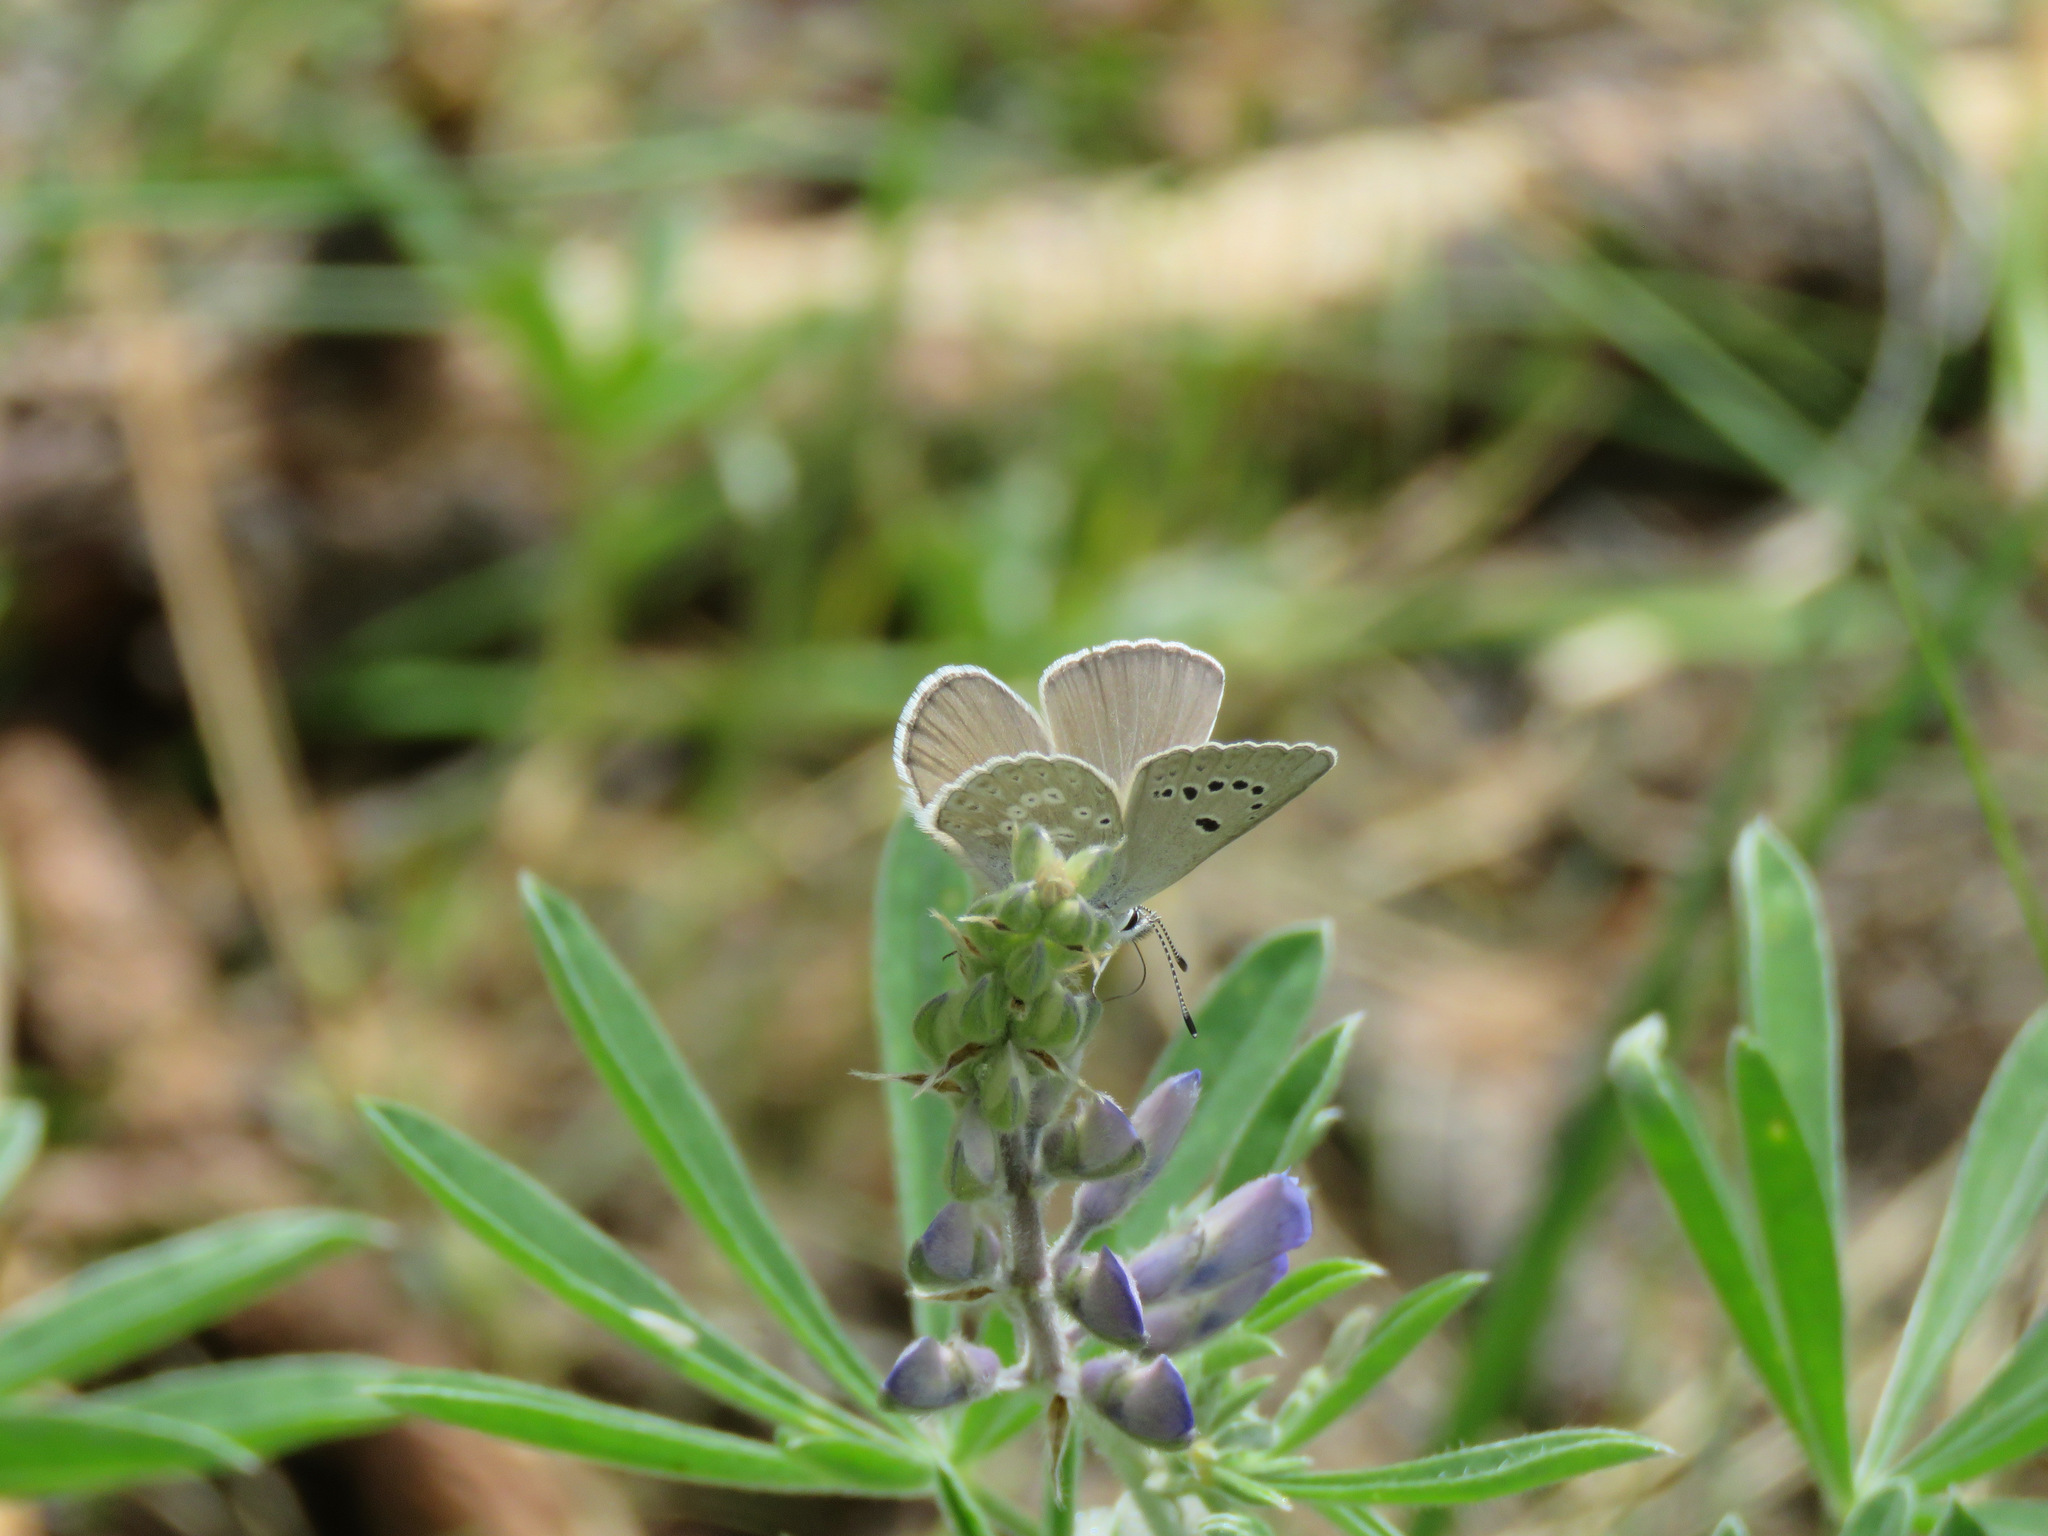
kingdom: Animalia
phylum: Arthropoda
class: Insecta
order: Lepidoptera
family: Lycaenidae
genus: Icaricia
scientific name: Icaricia icarioides
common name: Boisduval's blue
